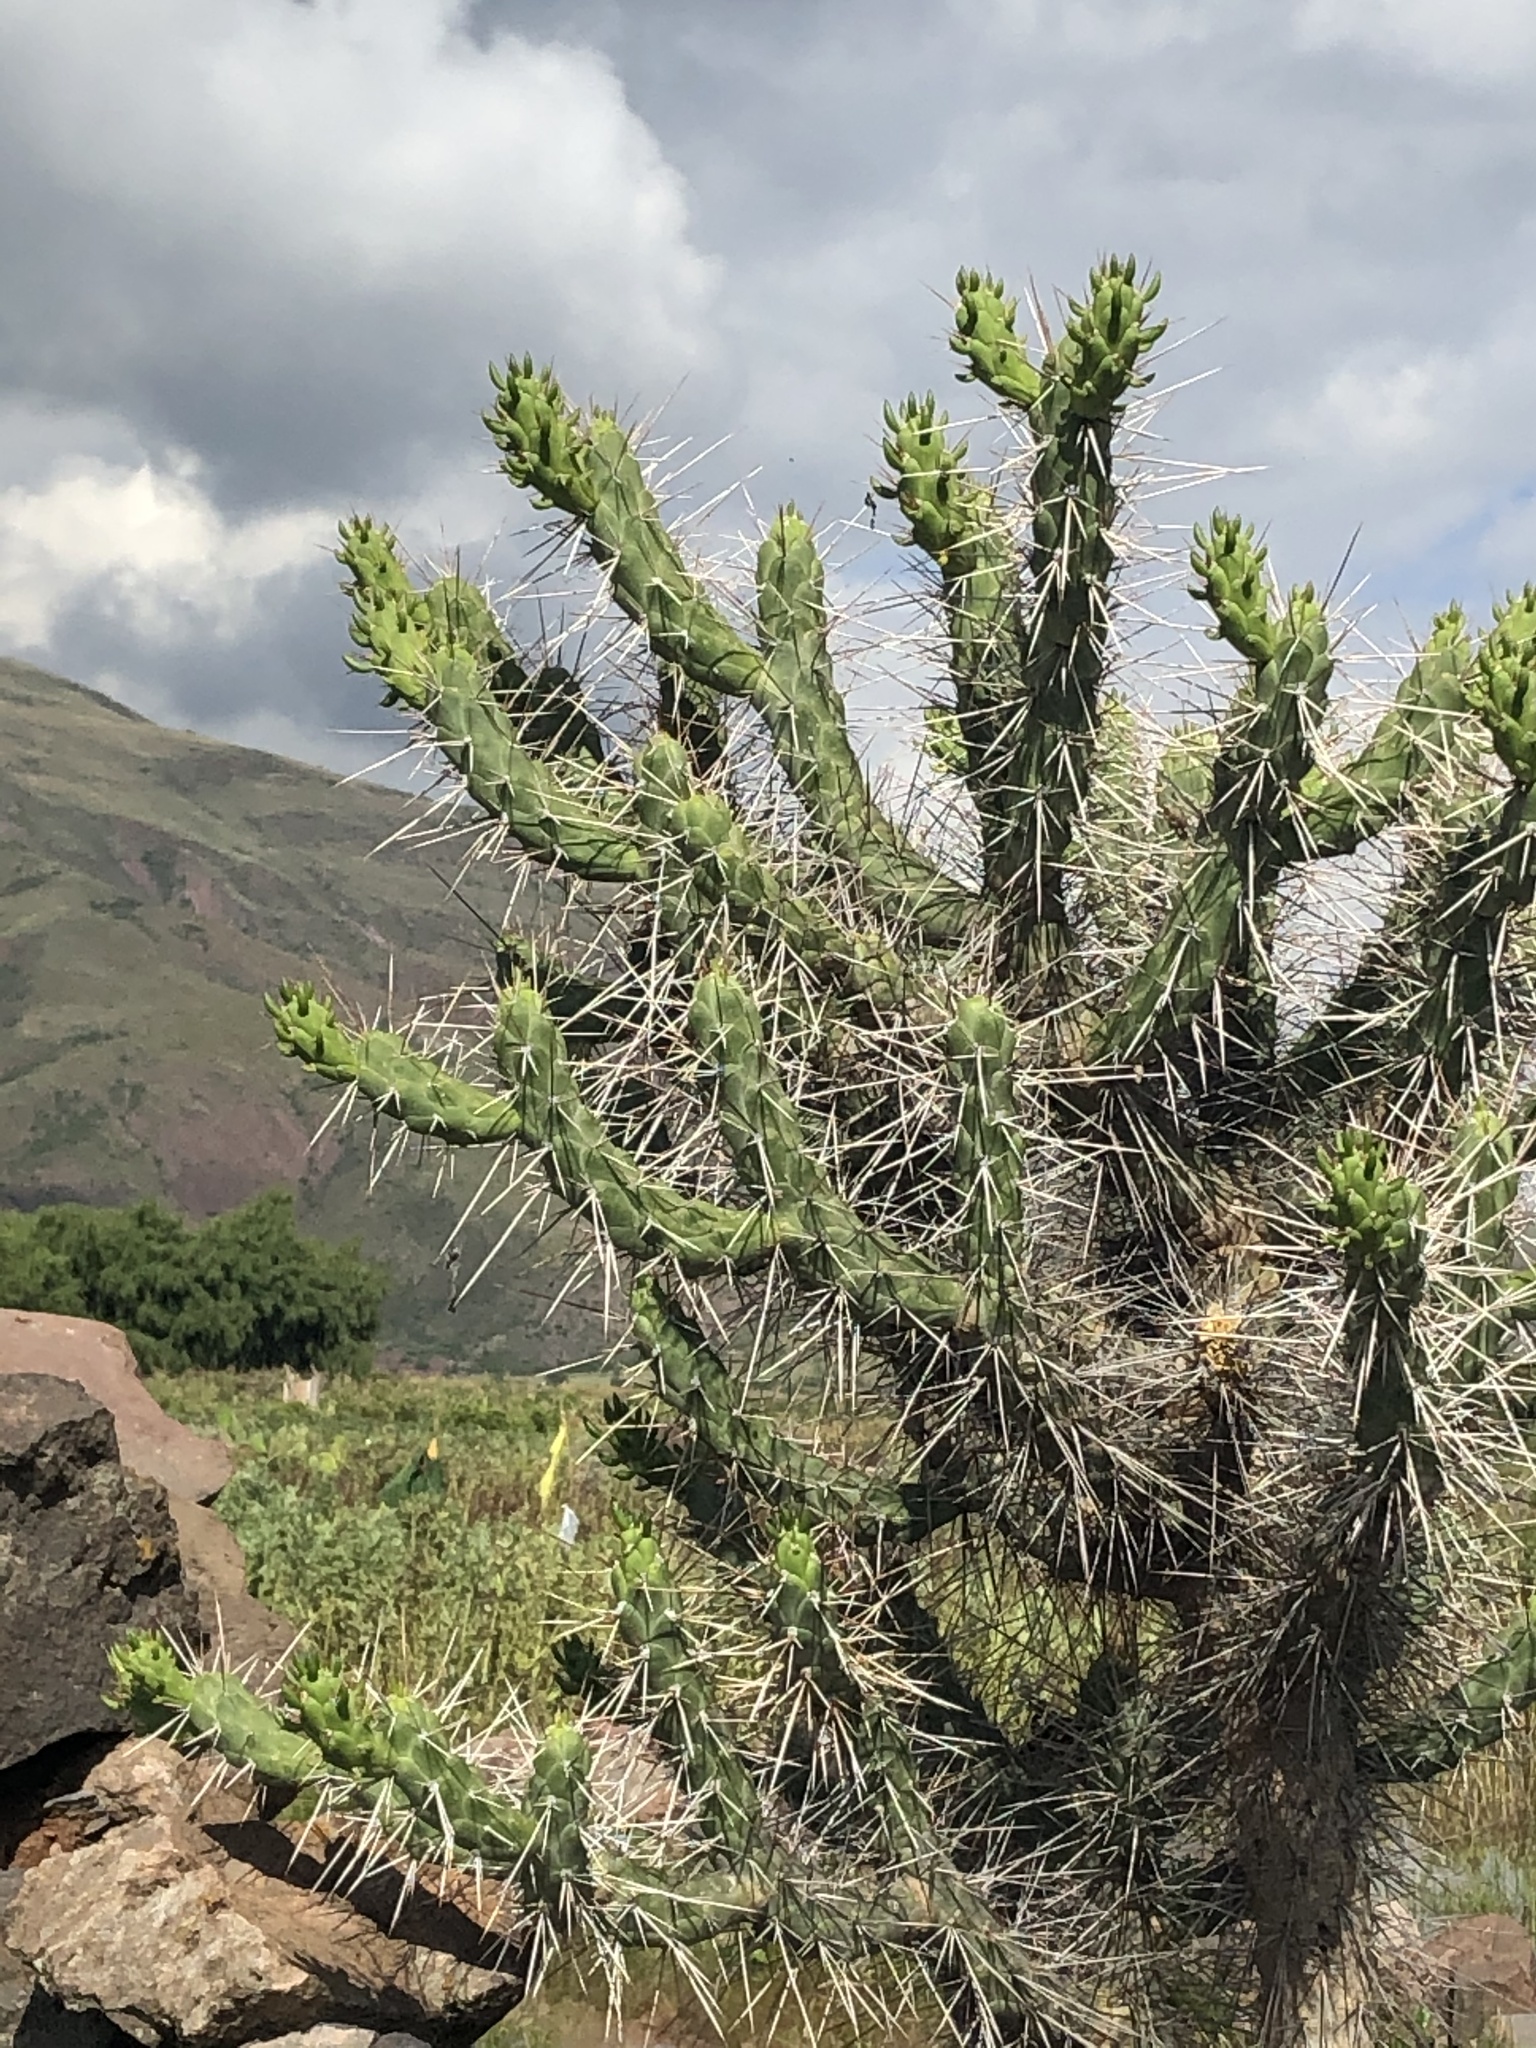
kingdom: Plantae
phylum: Tracheophyta
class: Magnoliopsida
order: Caryophyllales
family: Cactaceae
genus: Austrocylindropuntia
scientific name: Austrocylindropuntia subulata
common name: Eve's needle cactus
